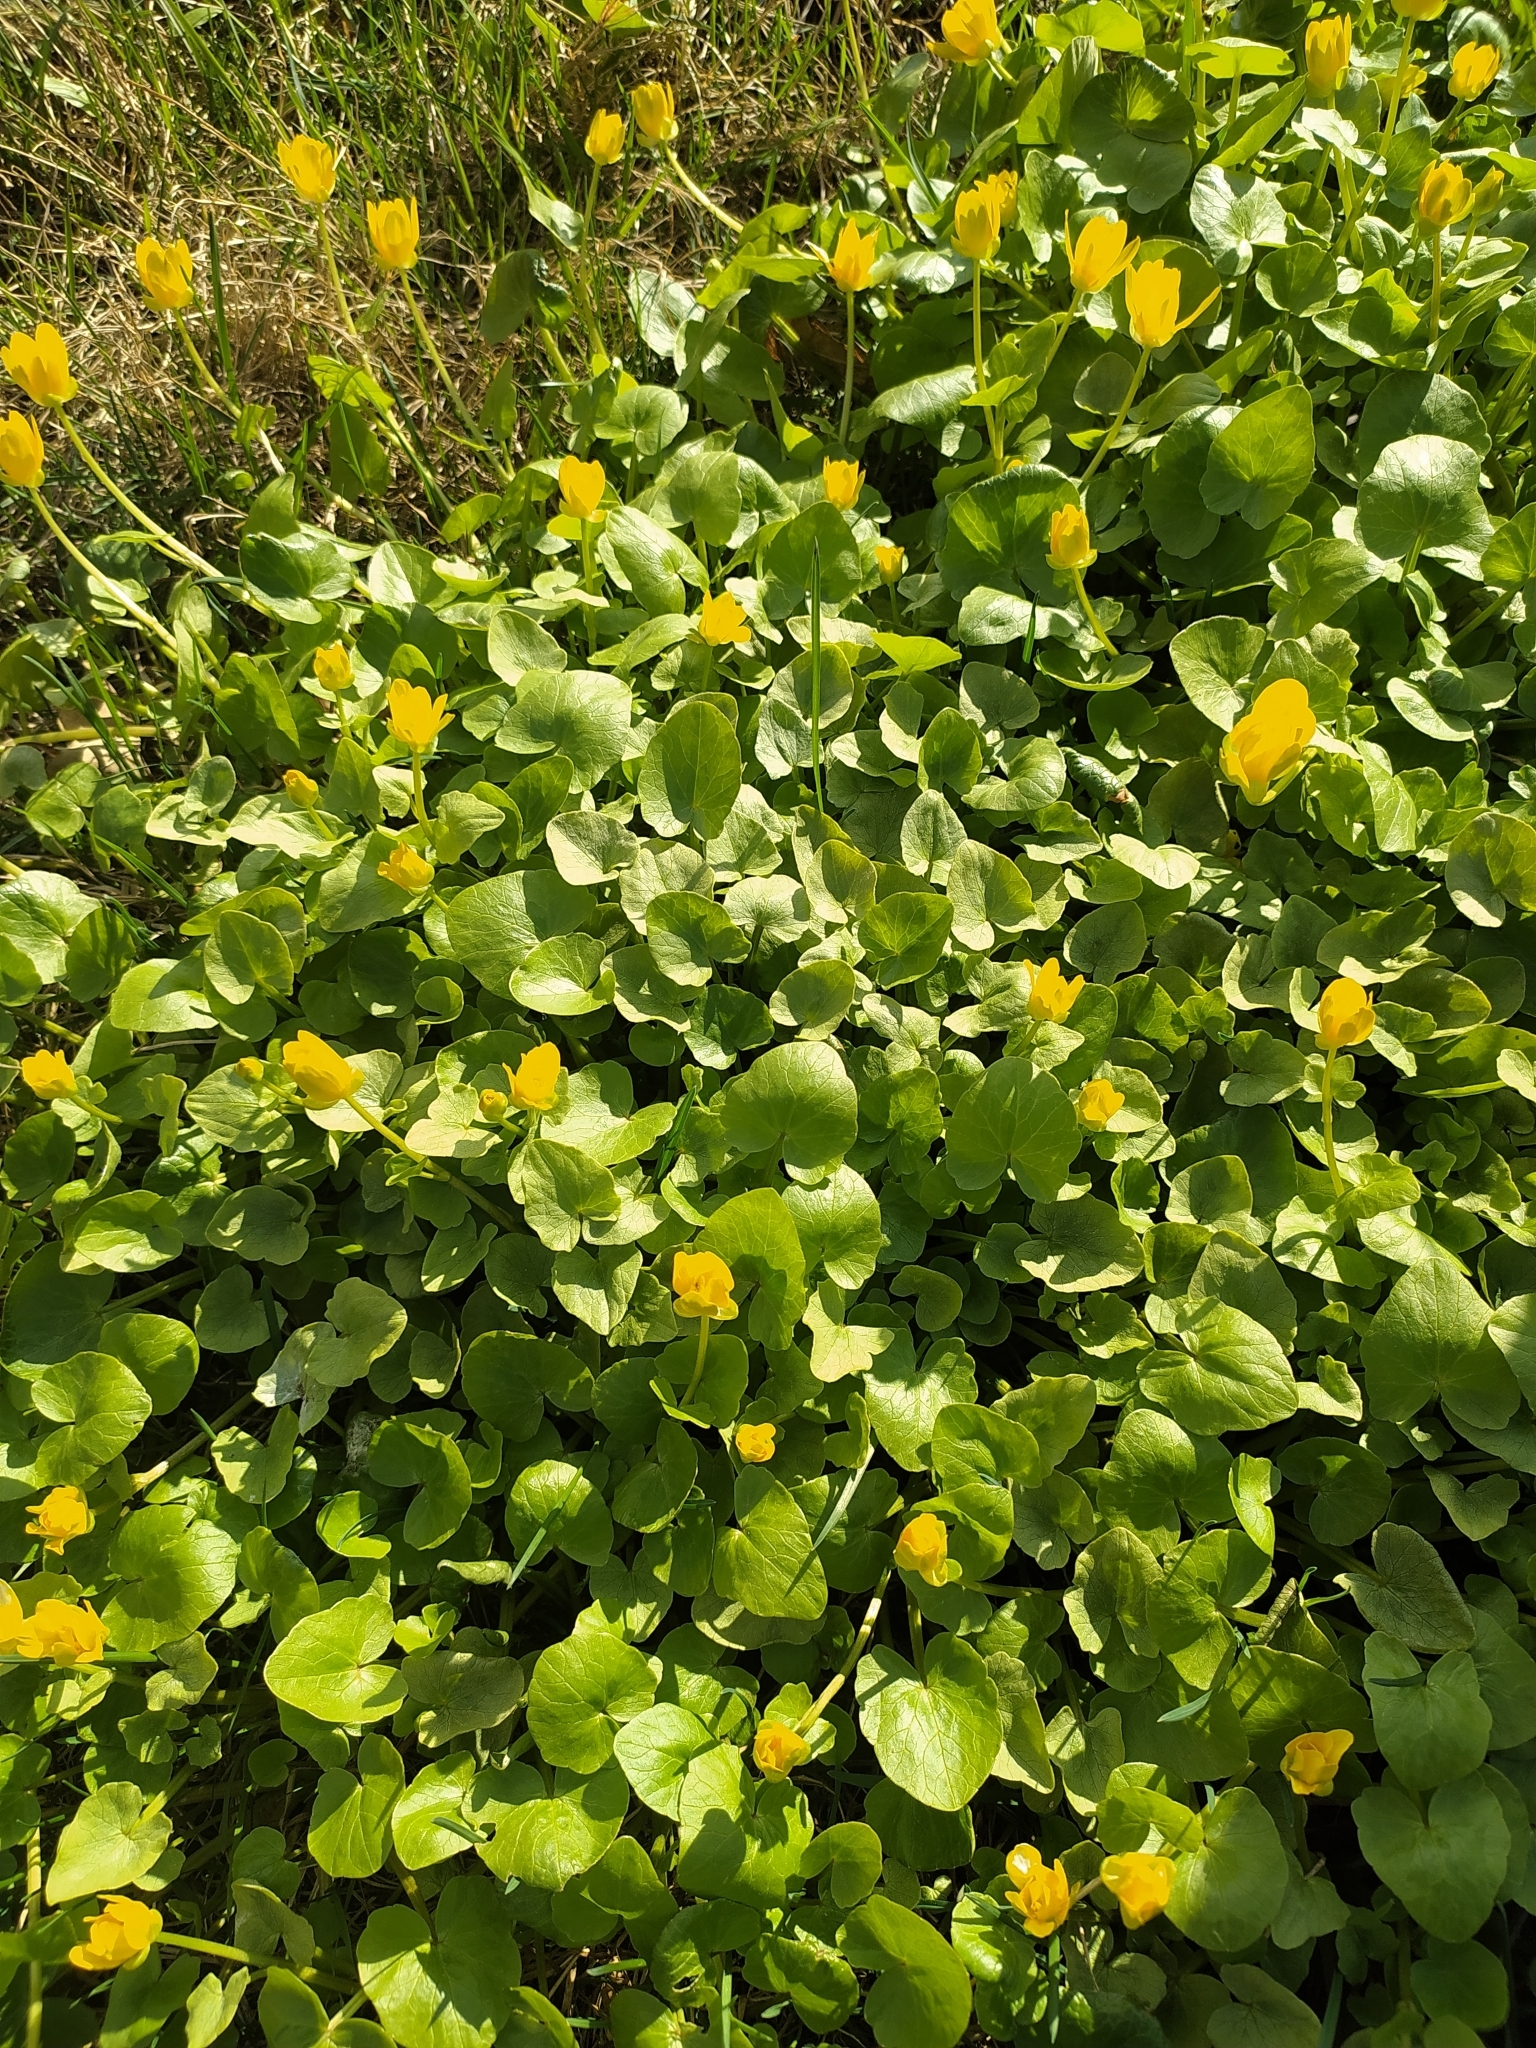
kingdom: Plantae
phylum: Tracheophyta
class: Magnoliopsida
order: Ranunculales
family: Ranunculaceae
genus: Ficaria
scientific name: Ficaria verna
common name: Lesser celandine
